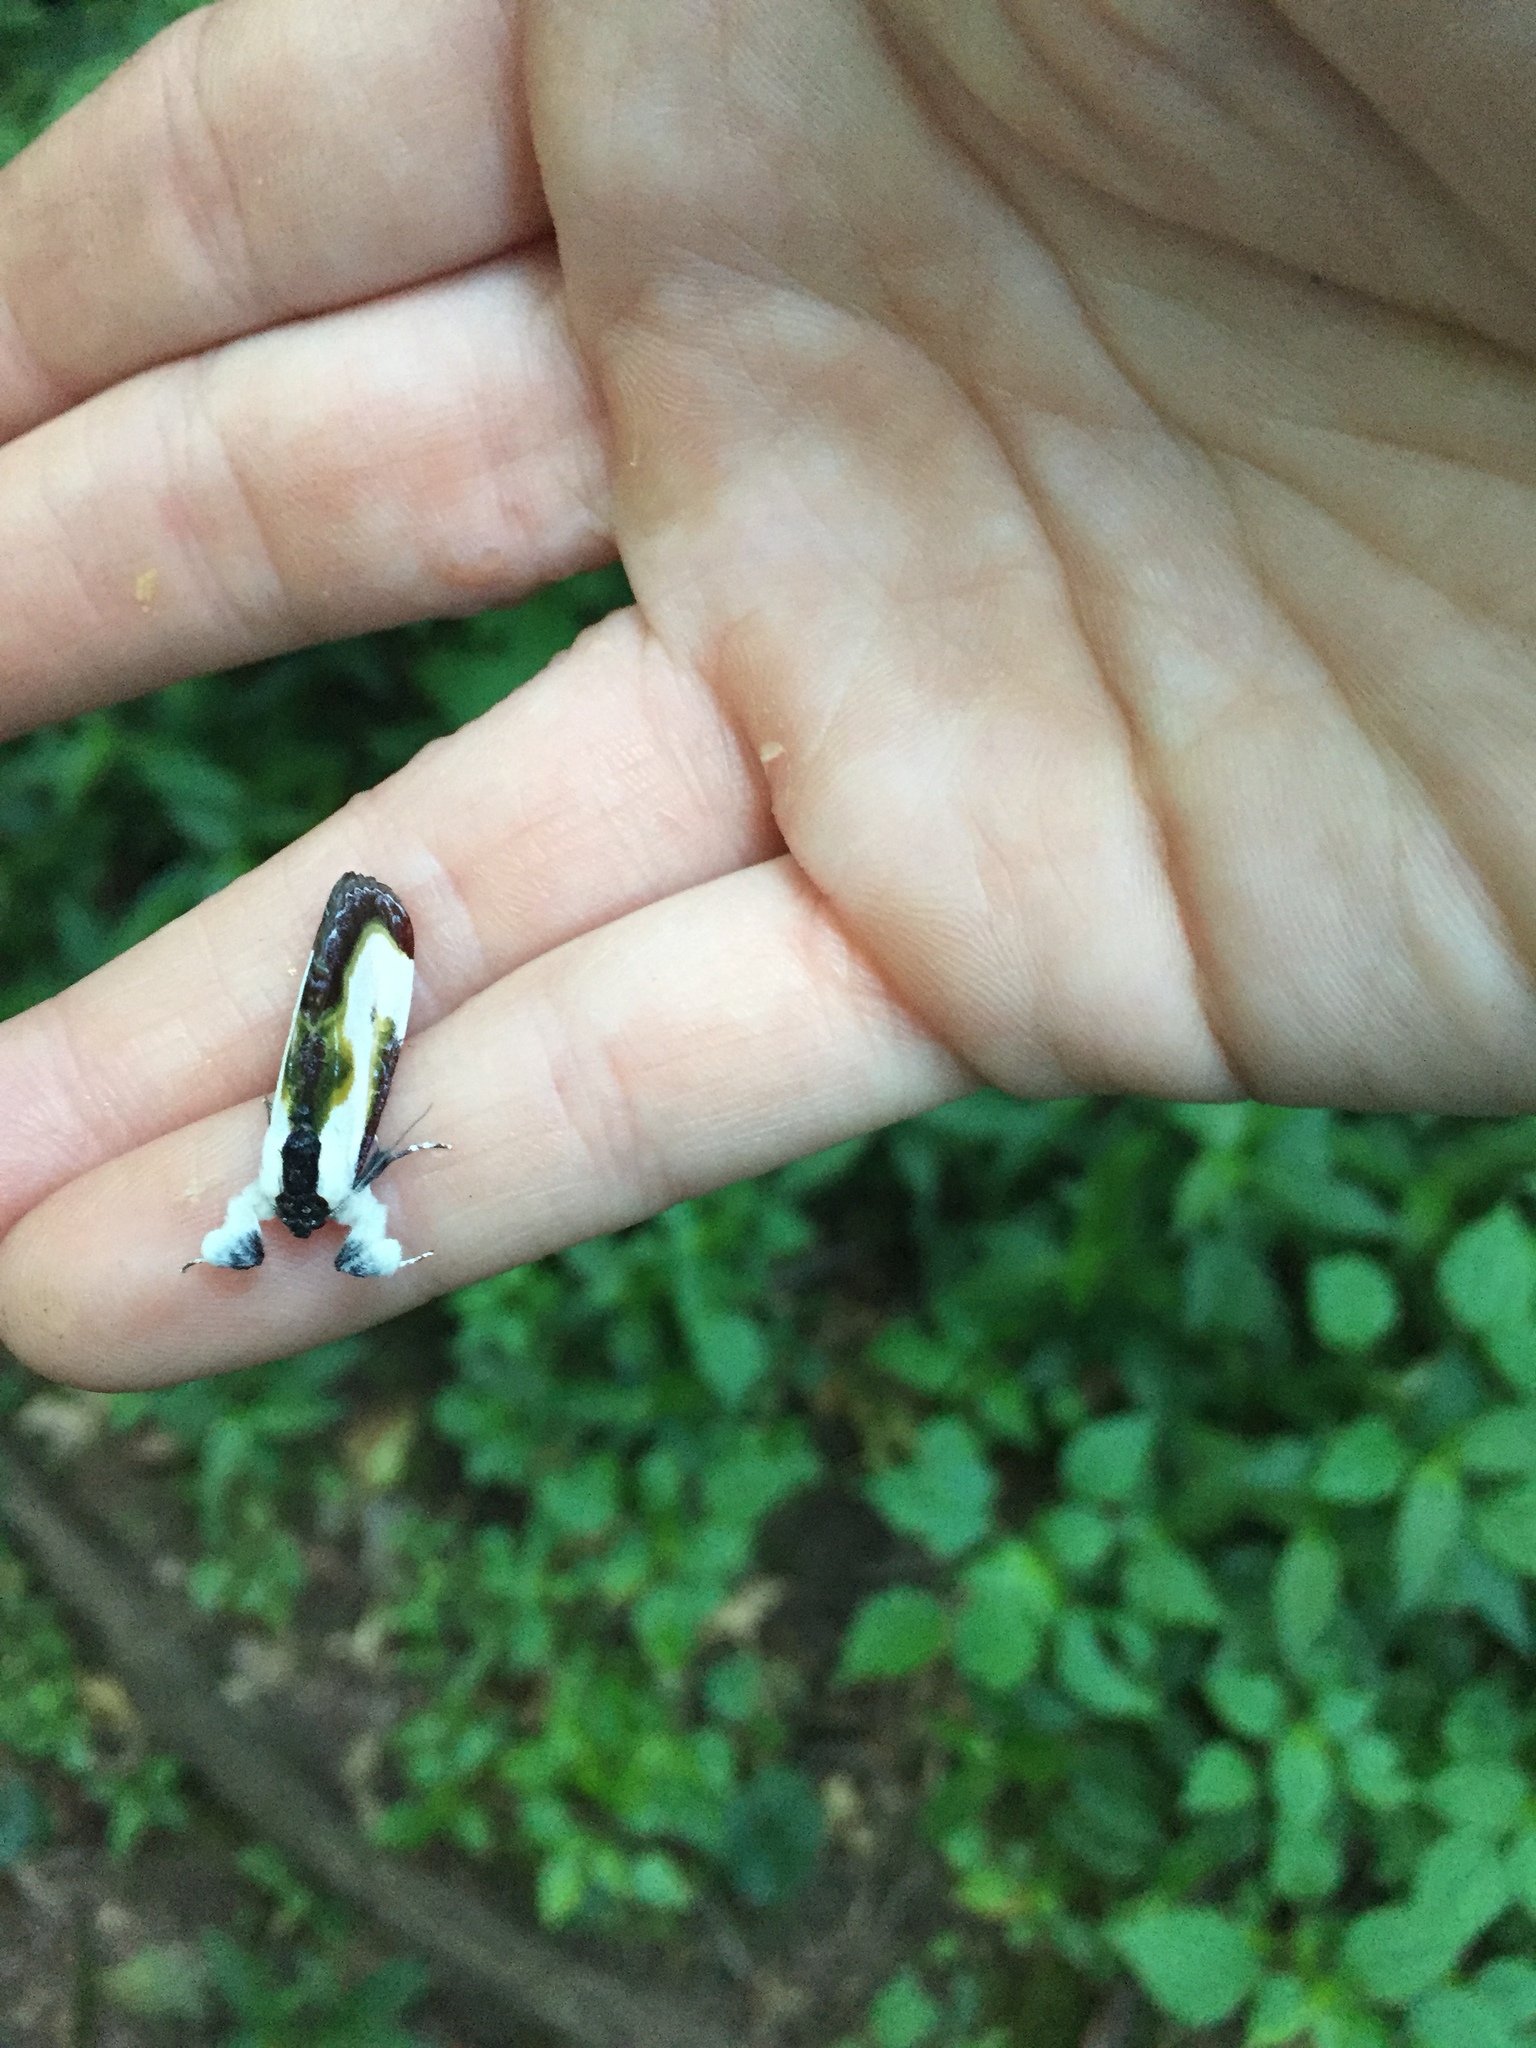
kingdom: Animalia
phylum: Arthropoda
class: Insecta
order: Lepidoptera
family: Noctuidae
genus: Eudryas
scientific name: Eudryas grata
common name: Beautiful wood-nymph
